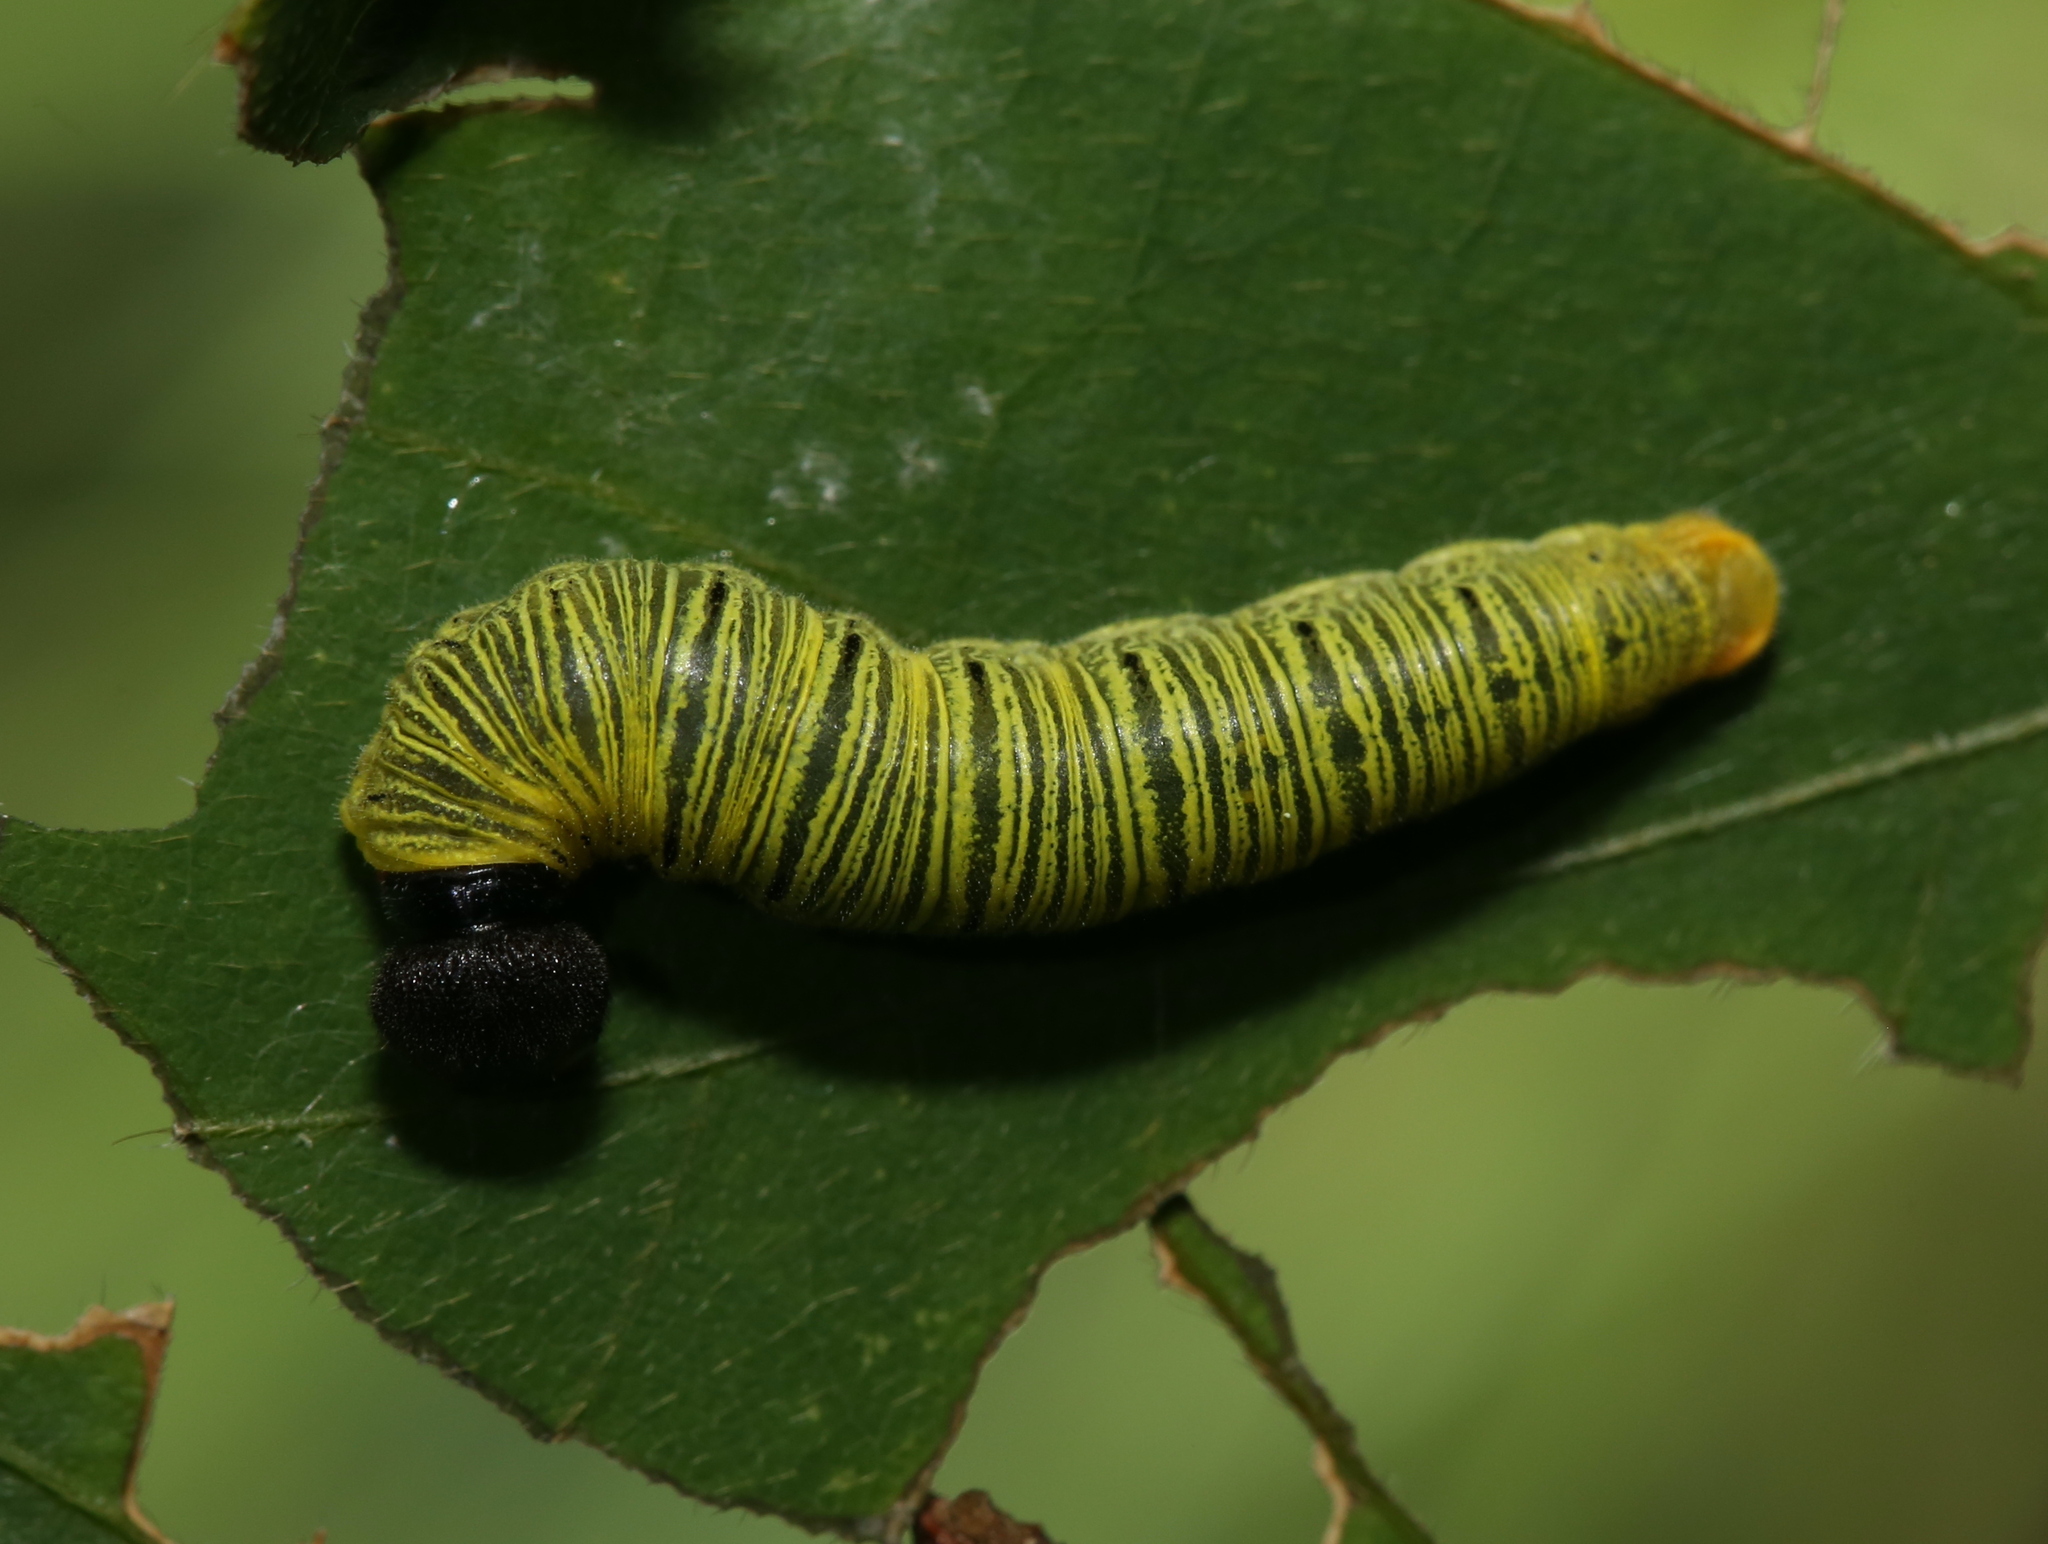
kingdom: Animalia
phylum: Arthropoda
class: Insecta
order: Lepidoptera
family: Hesperiidae
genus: Epargyreus
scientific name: Epargyreus clarus
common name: Silver-spotted skipper
